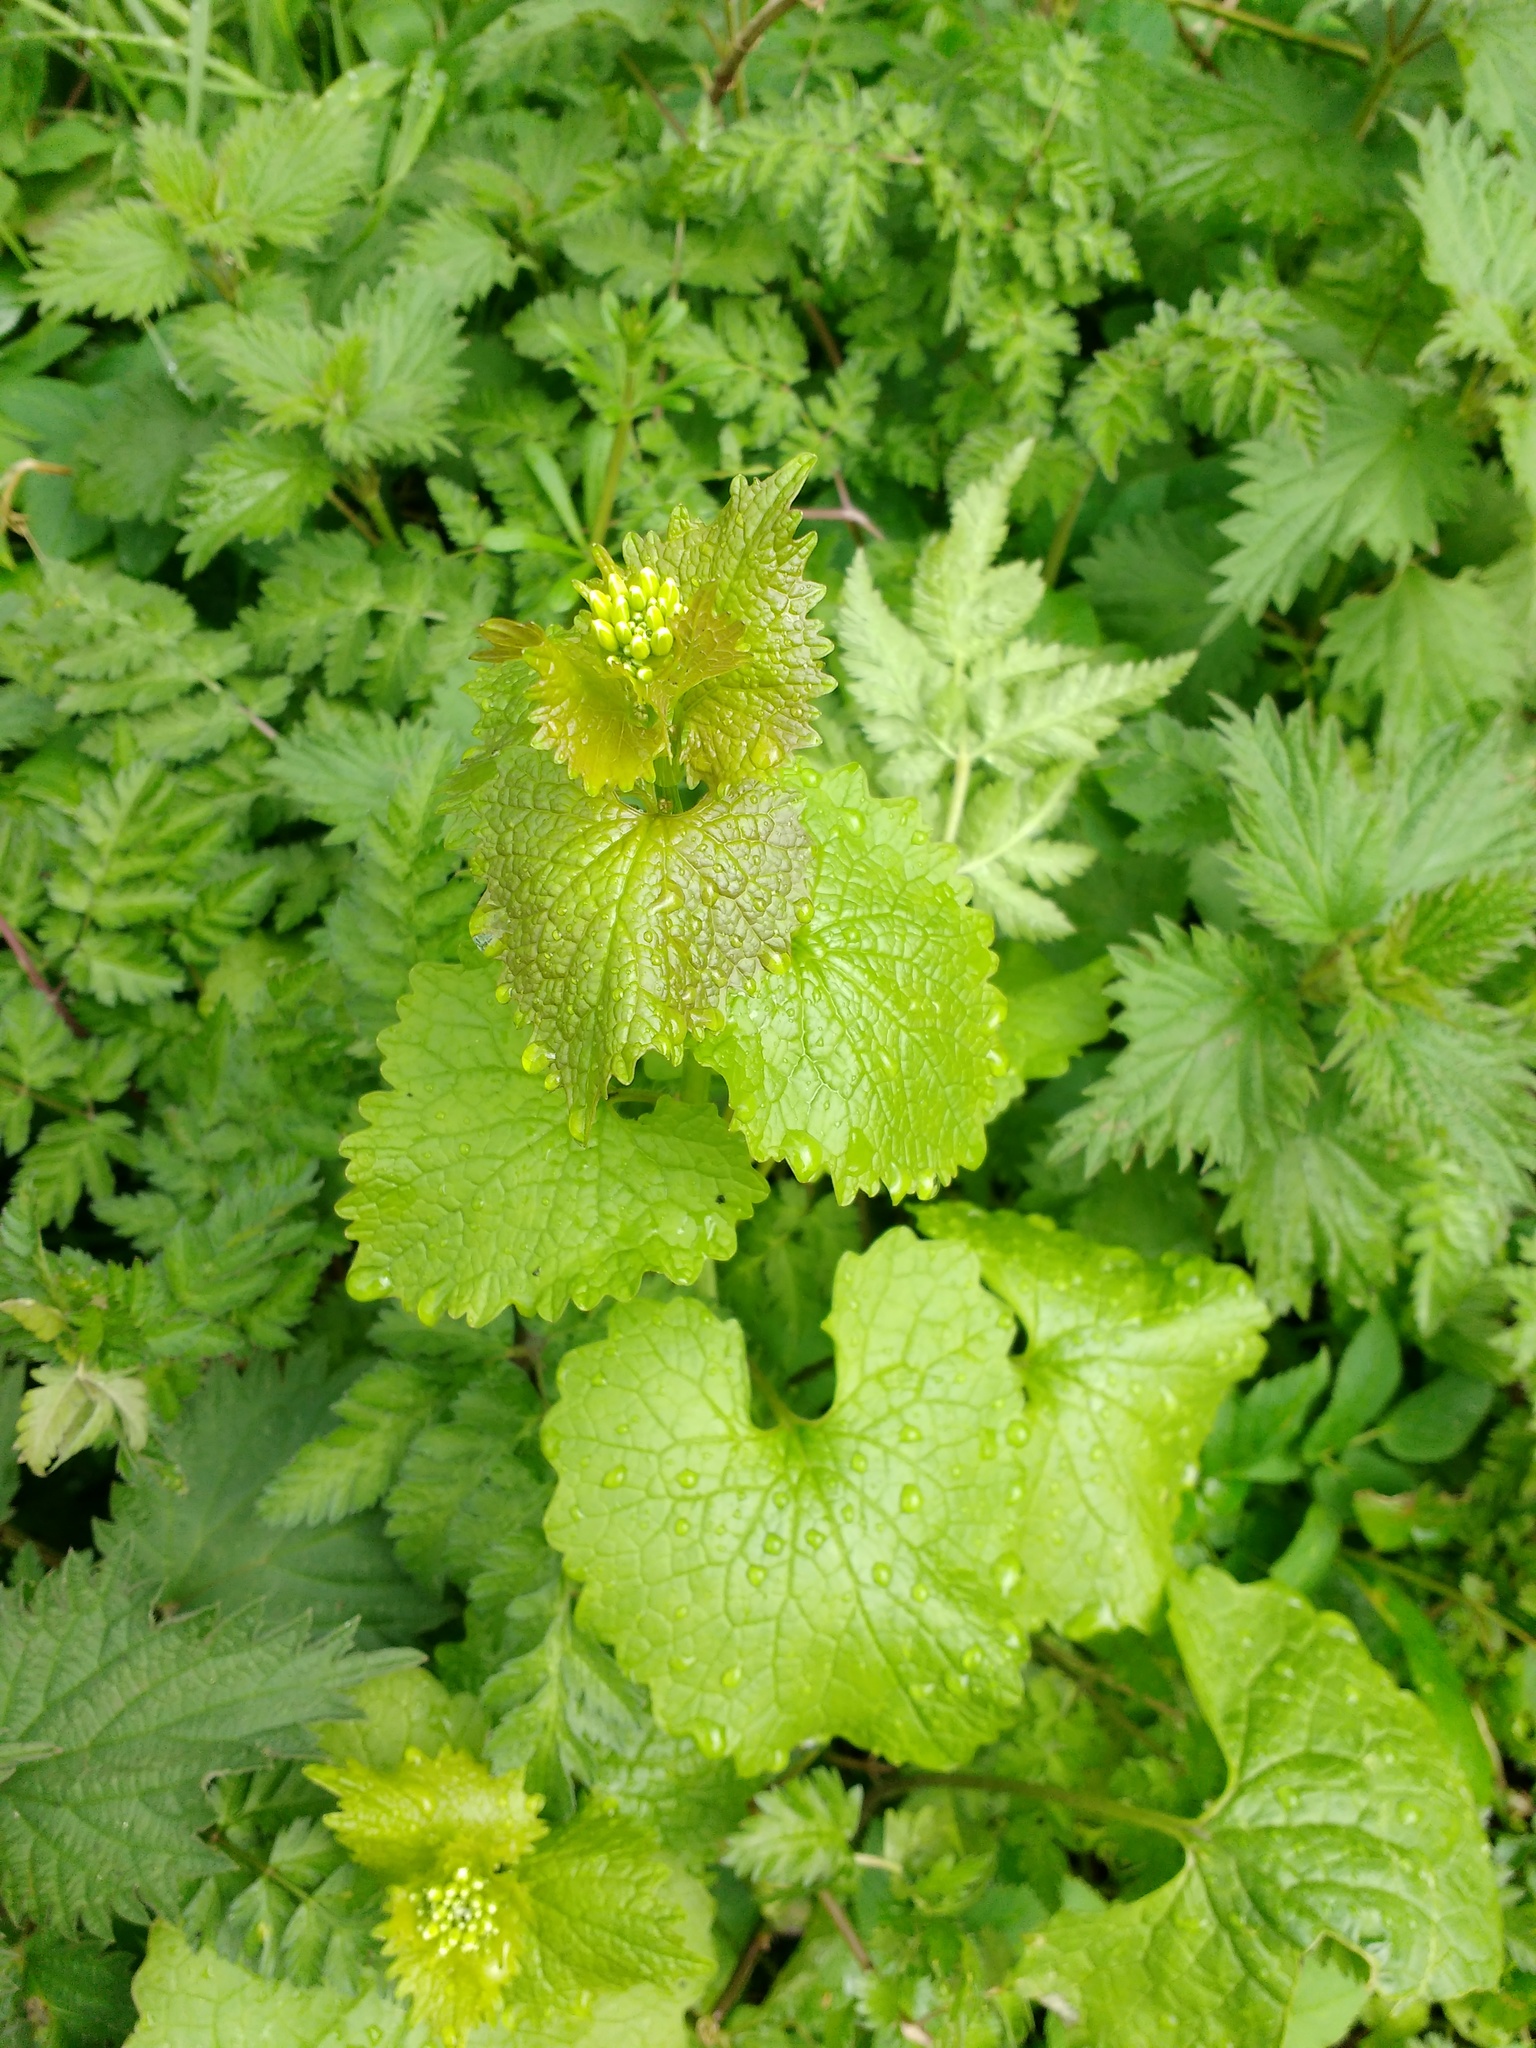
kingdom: Plantae
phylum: Tracheophyta
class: Magnoliopsida
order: Brassicales
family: Brassicaceae
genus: Alliaria
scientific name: Alliaria petiolata
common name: Garlic mustard
